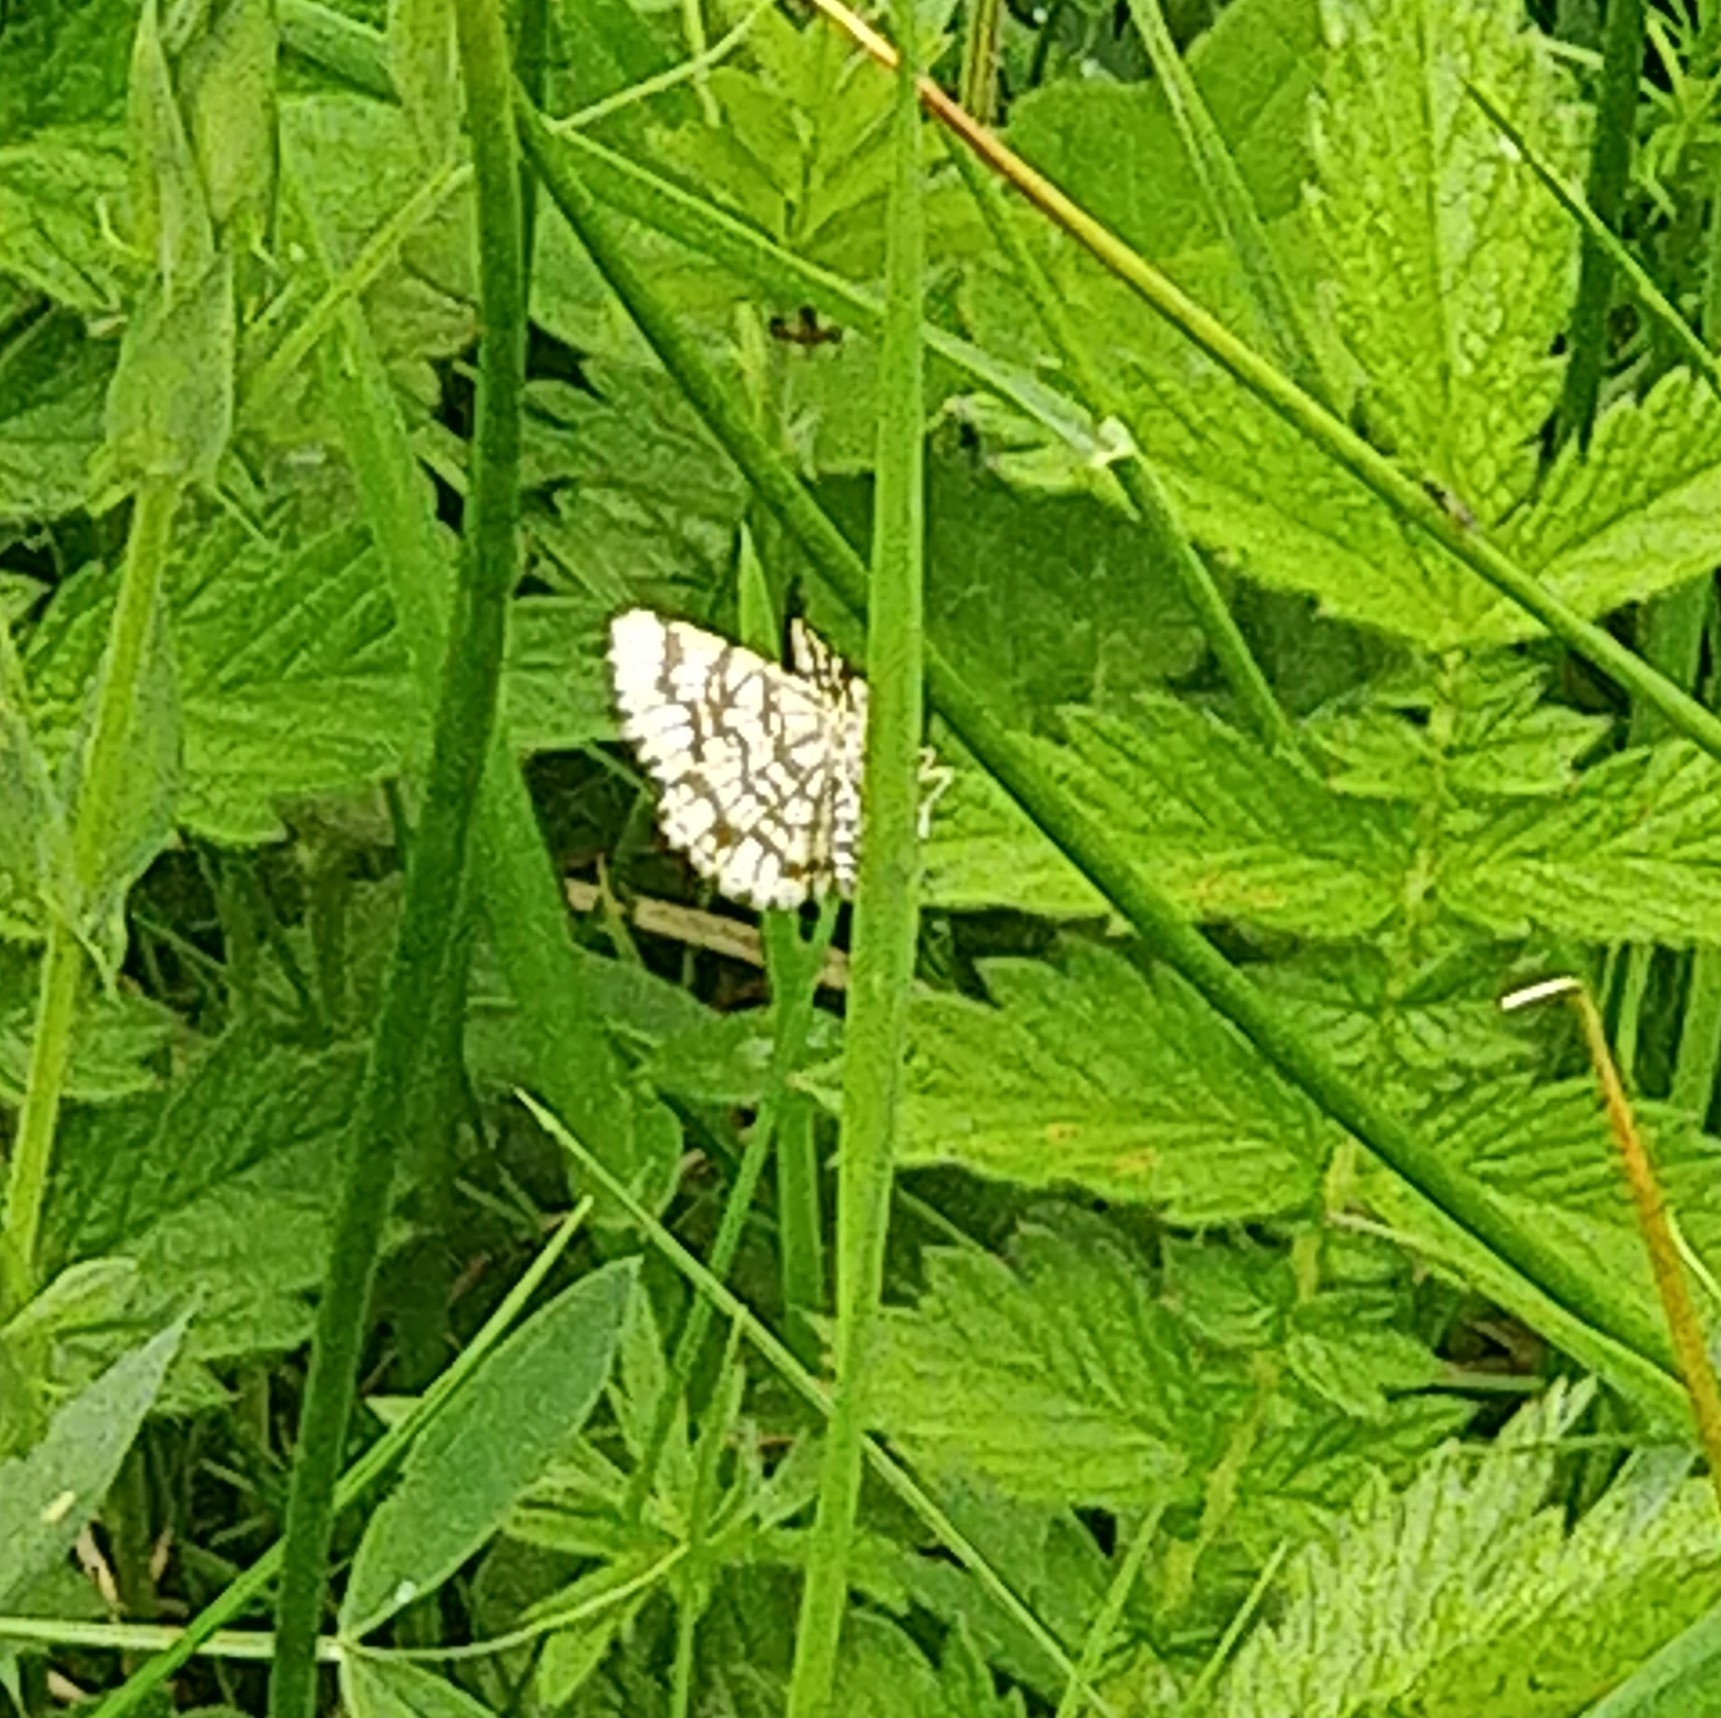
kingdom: Animalia
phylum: Arthropoda
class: Insecta
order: Lepidoptera
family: Geometridae
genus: Chiasmia
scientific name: Chiasmia clathrata
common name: Latticed heath
